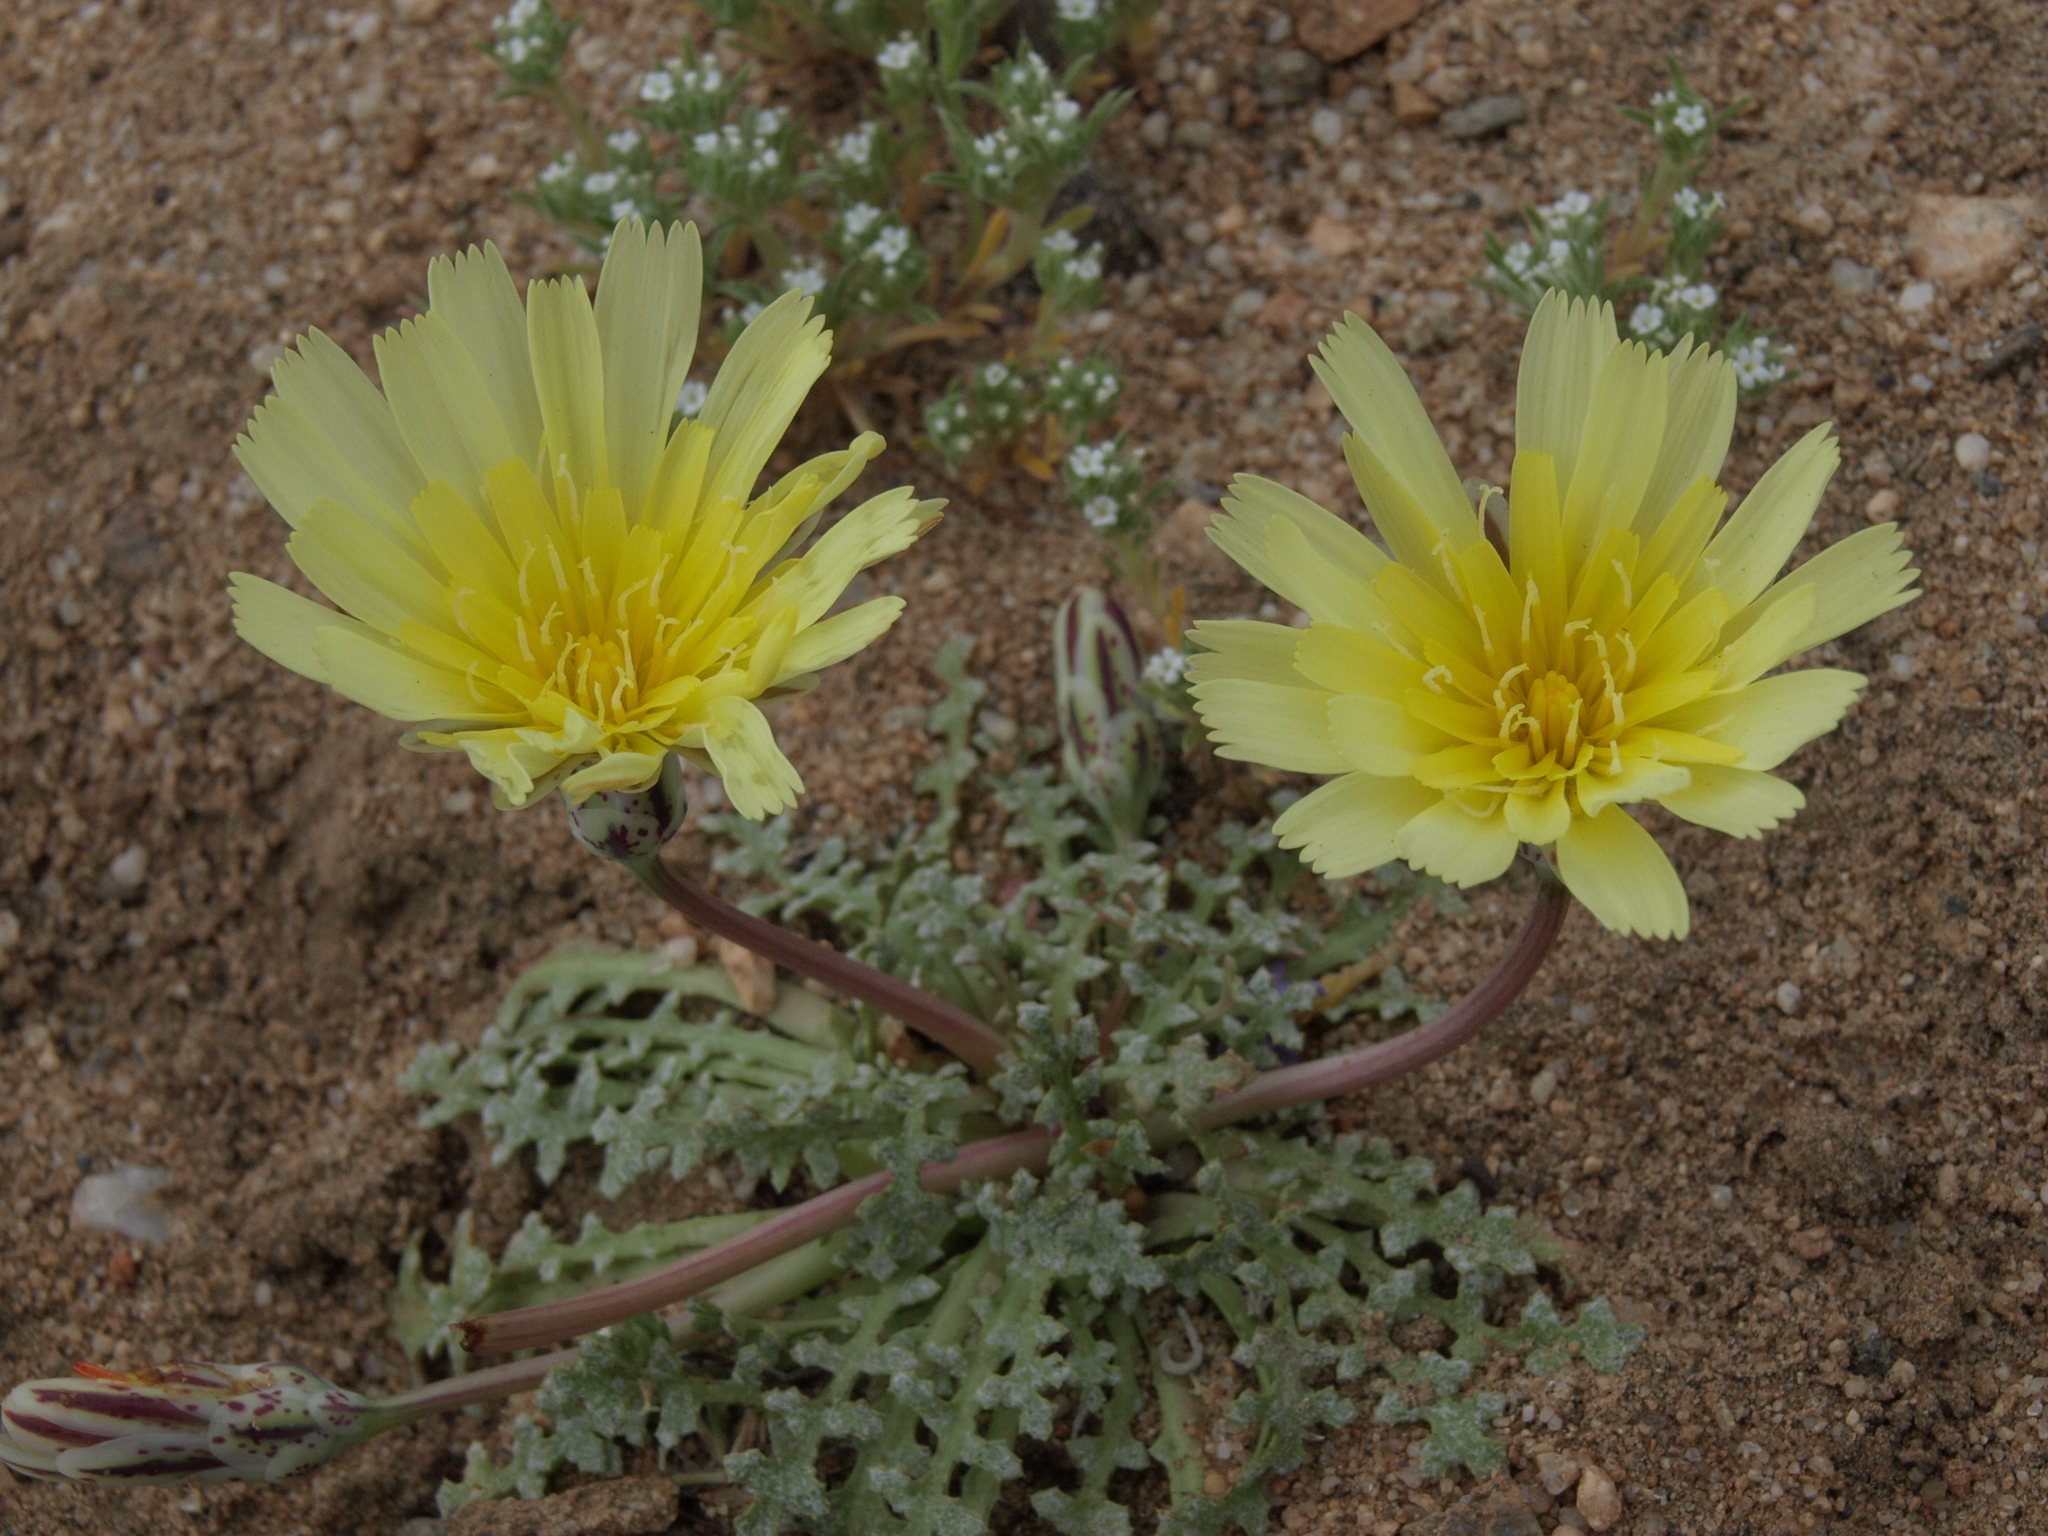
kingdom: Plantae
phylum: Tracheophyta
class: Magnoliopsida
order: Asterales
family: Asteraceae
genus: Anisocoma
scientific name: Anisocoma acaulis
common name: Scalebud
